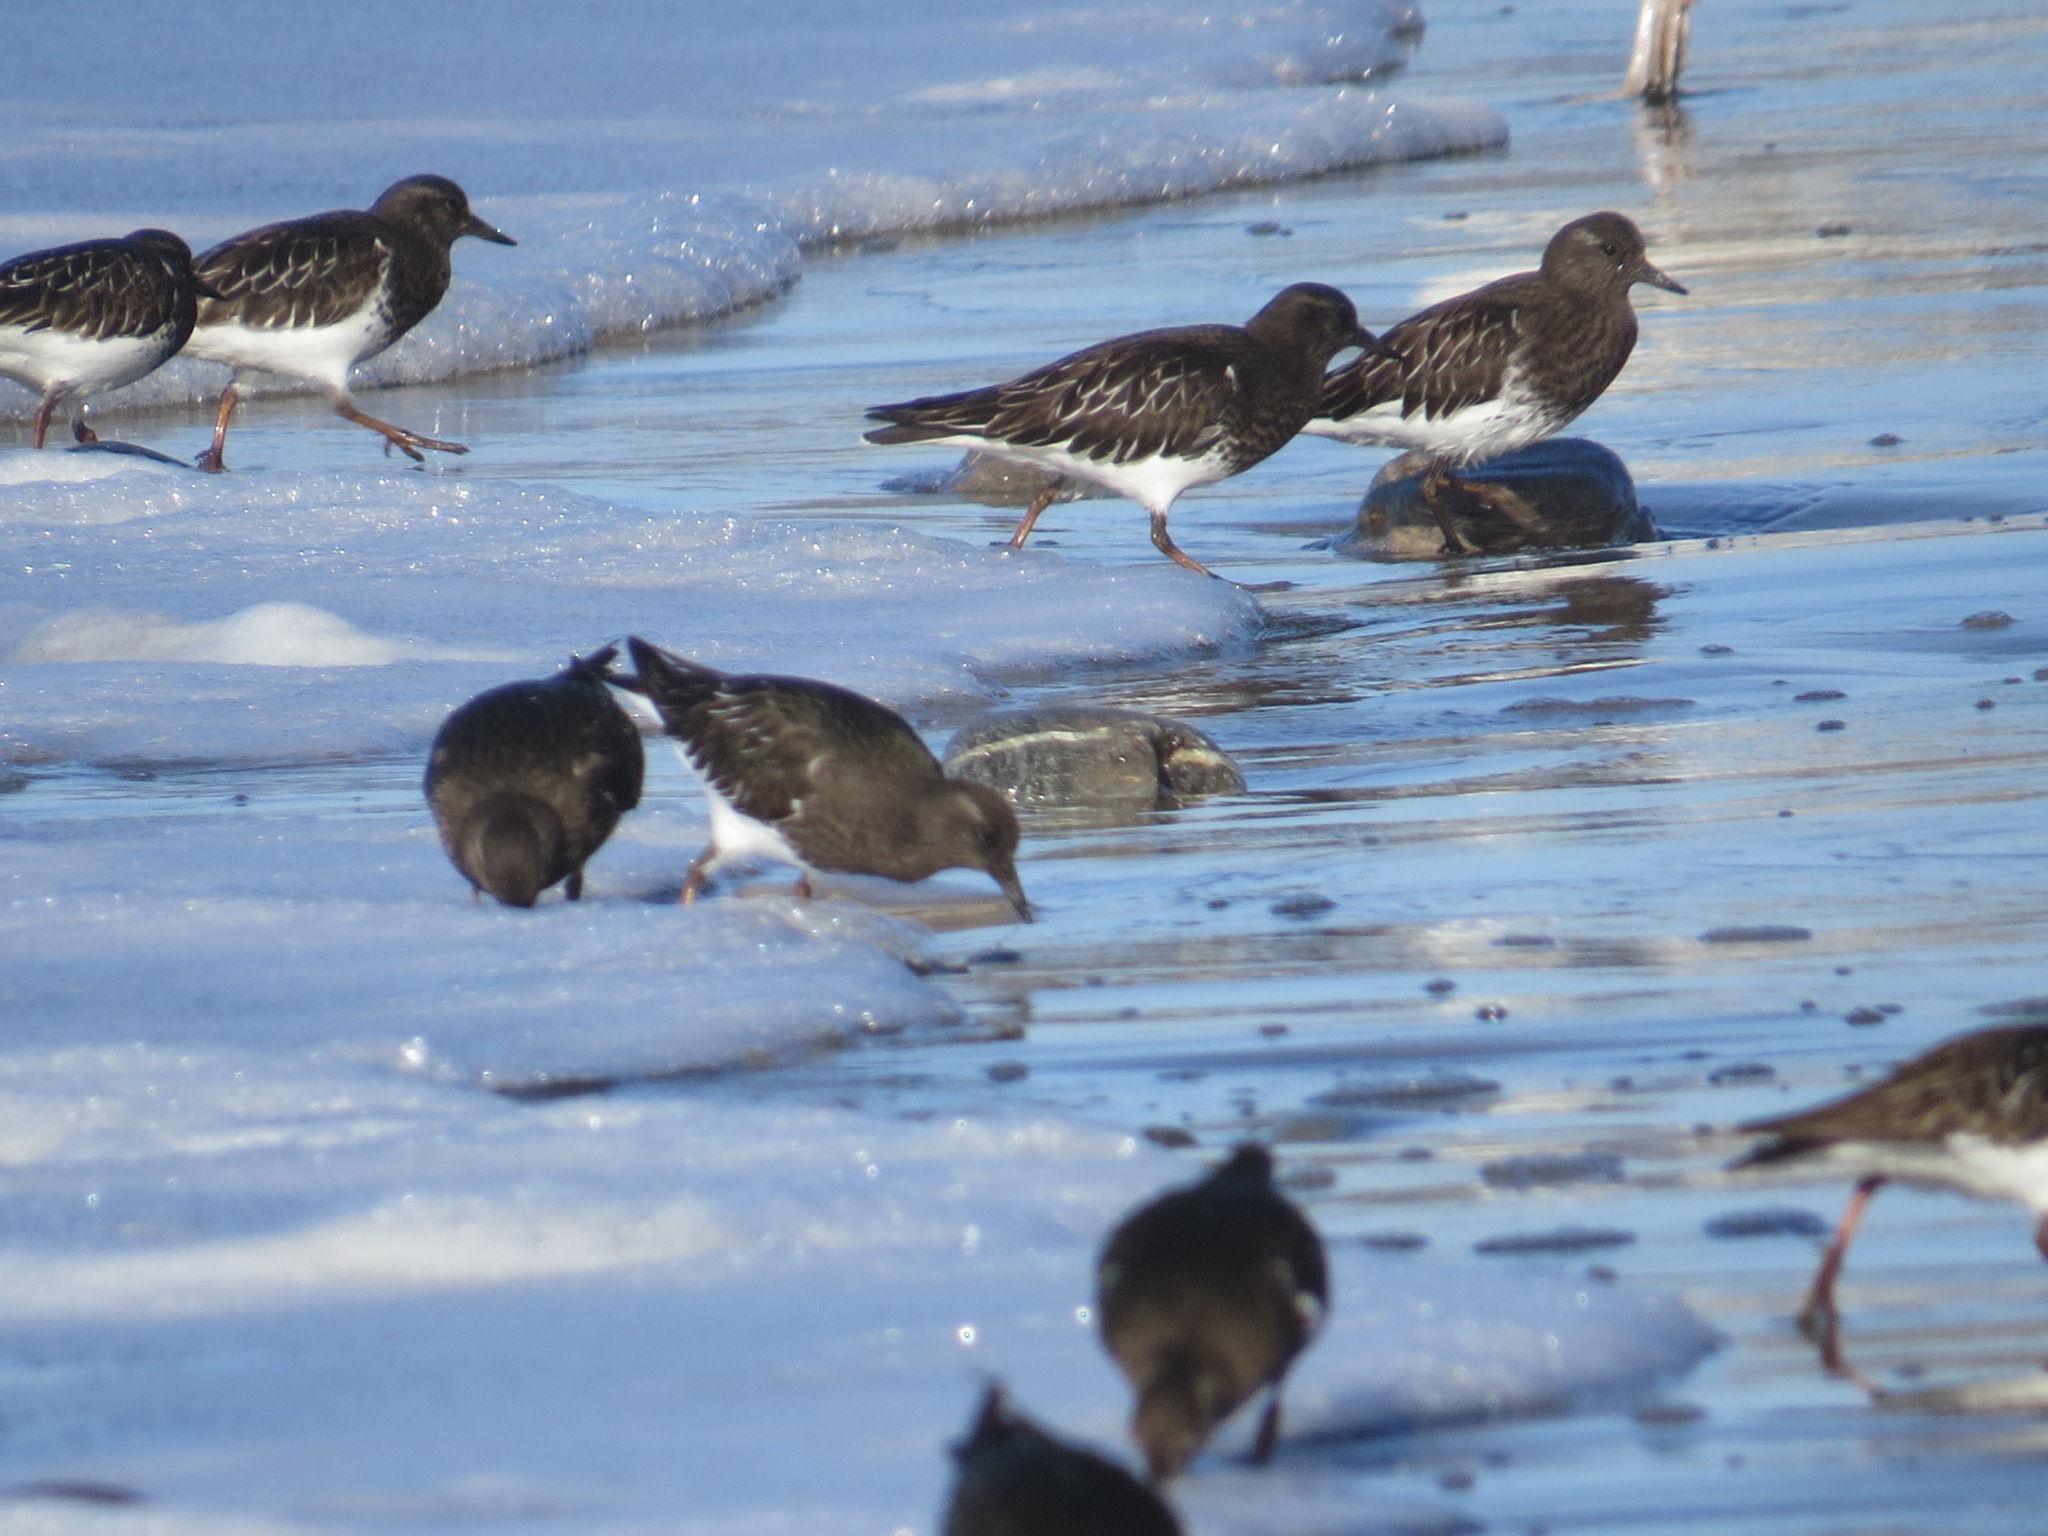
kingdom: Animalia
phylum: Chordata
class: Aves
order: Charadriiformes
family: Scolopacidae
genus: Arenaria
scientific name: Arenaria melanocephala
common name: Black turnstone
